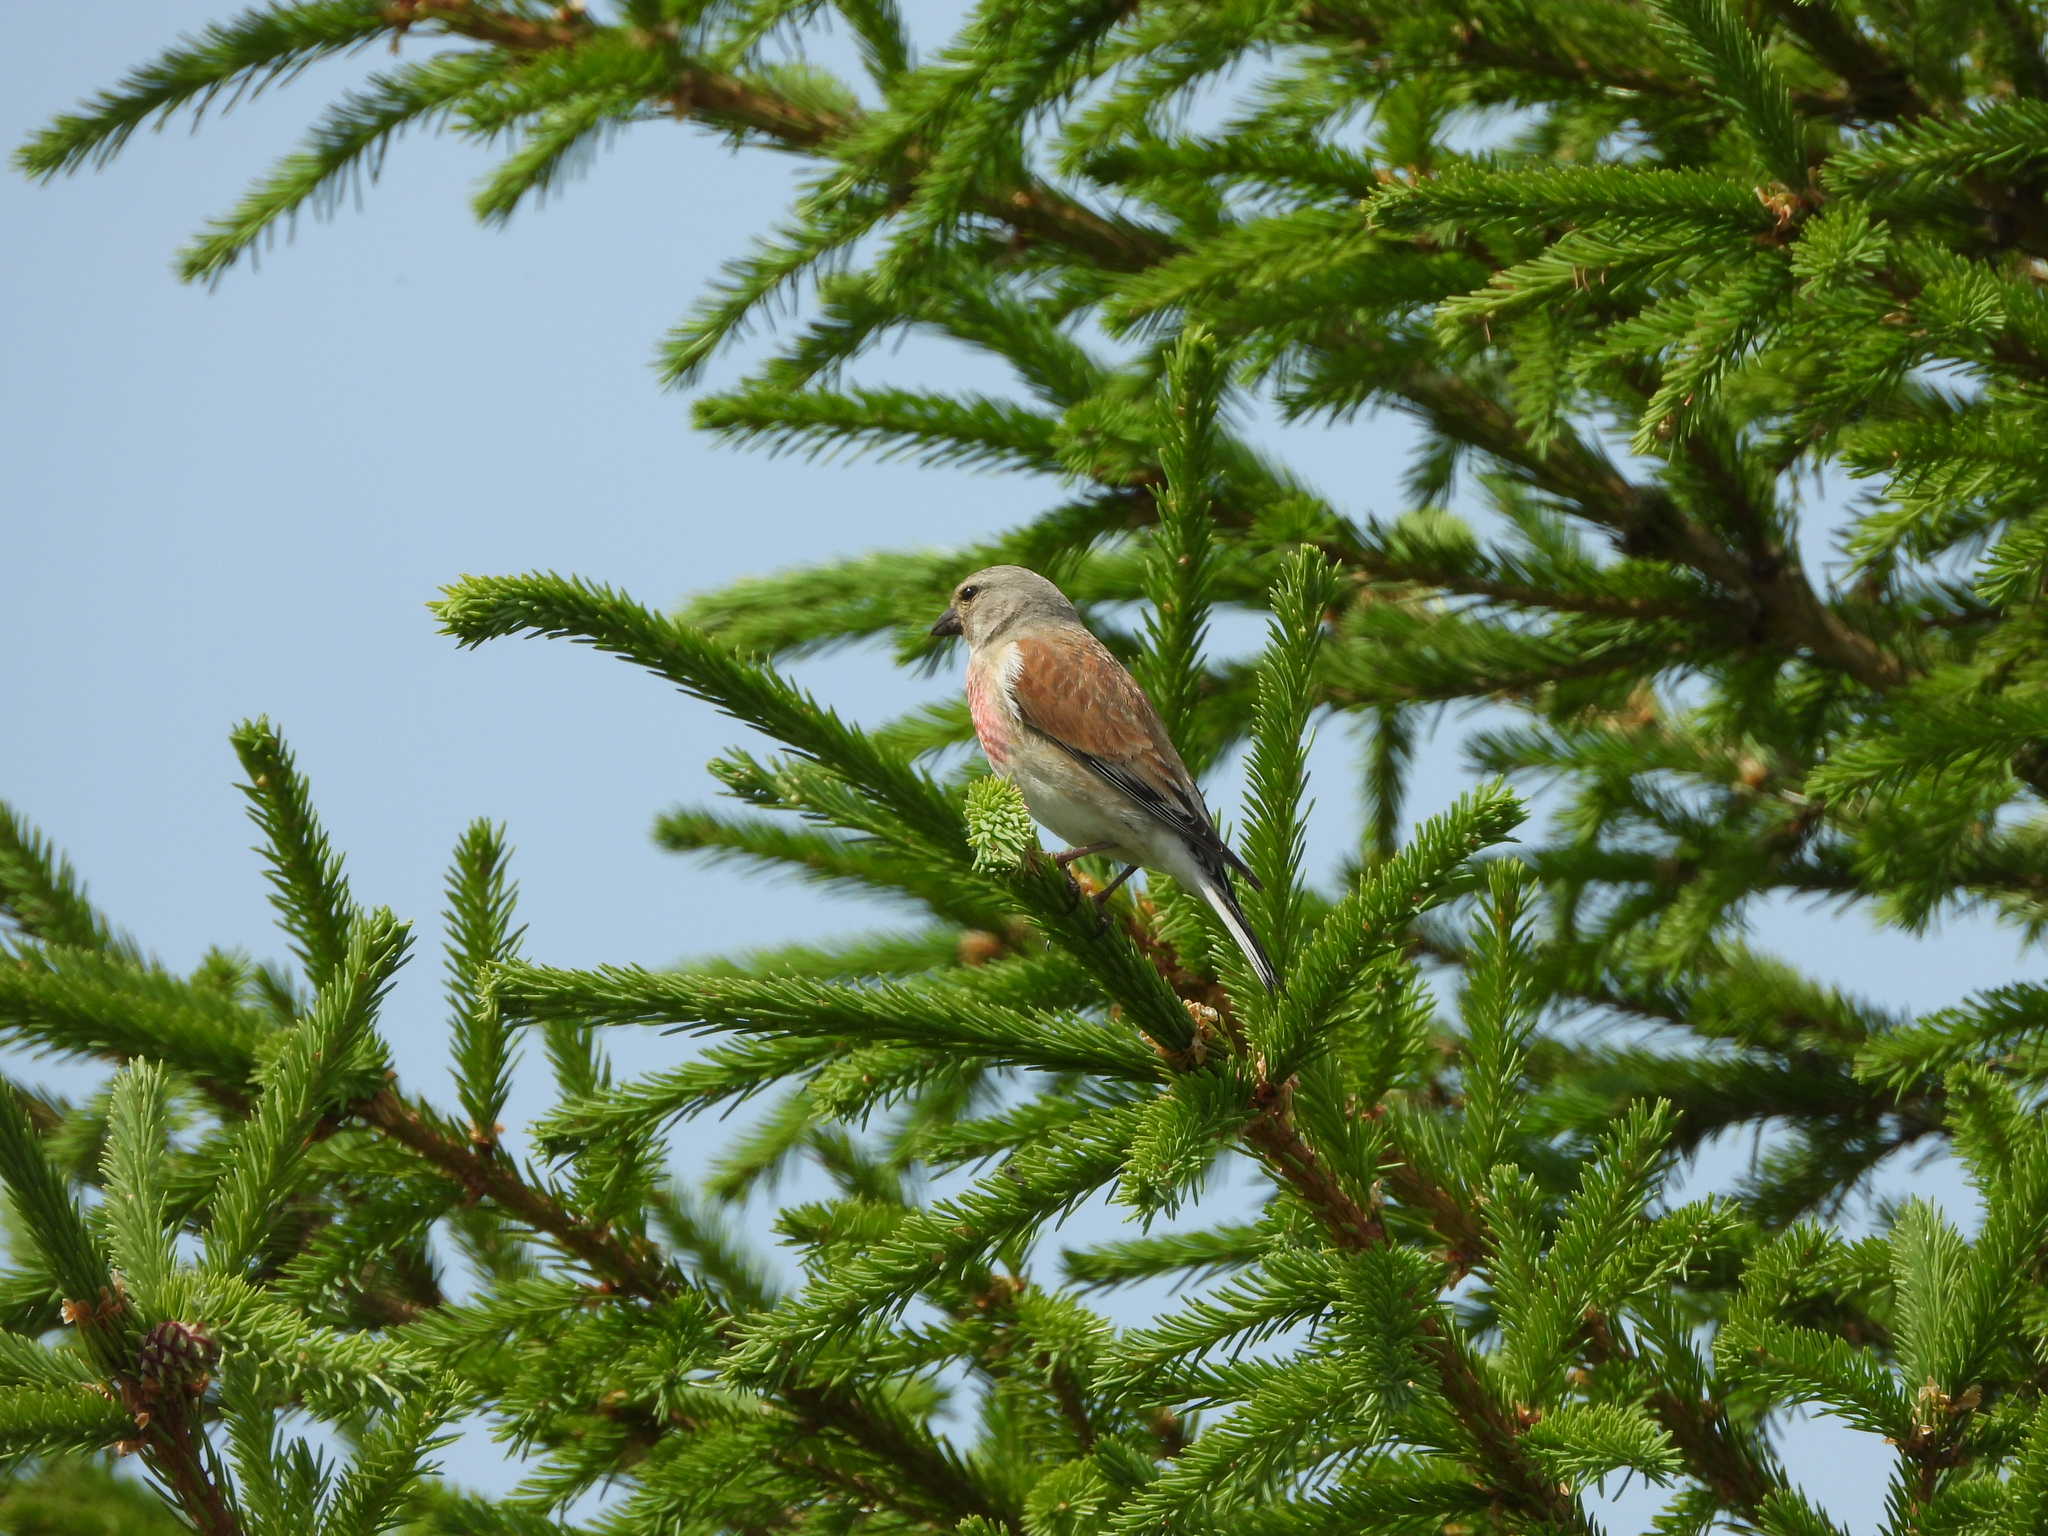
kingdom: Animalia
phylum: Chordata
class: Aves
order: Passeriformes
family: Fringillidae
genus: Linaria
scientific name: Linaria cannabina
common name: Common linnet
